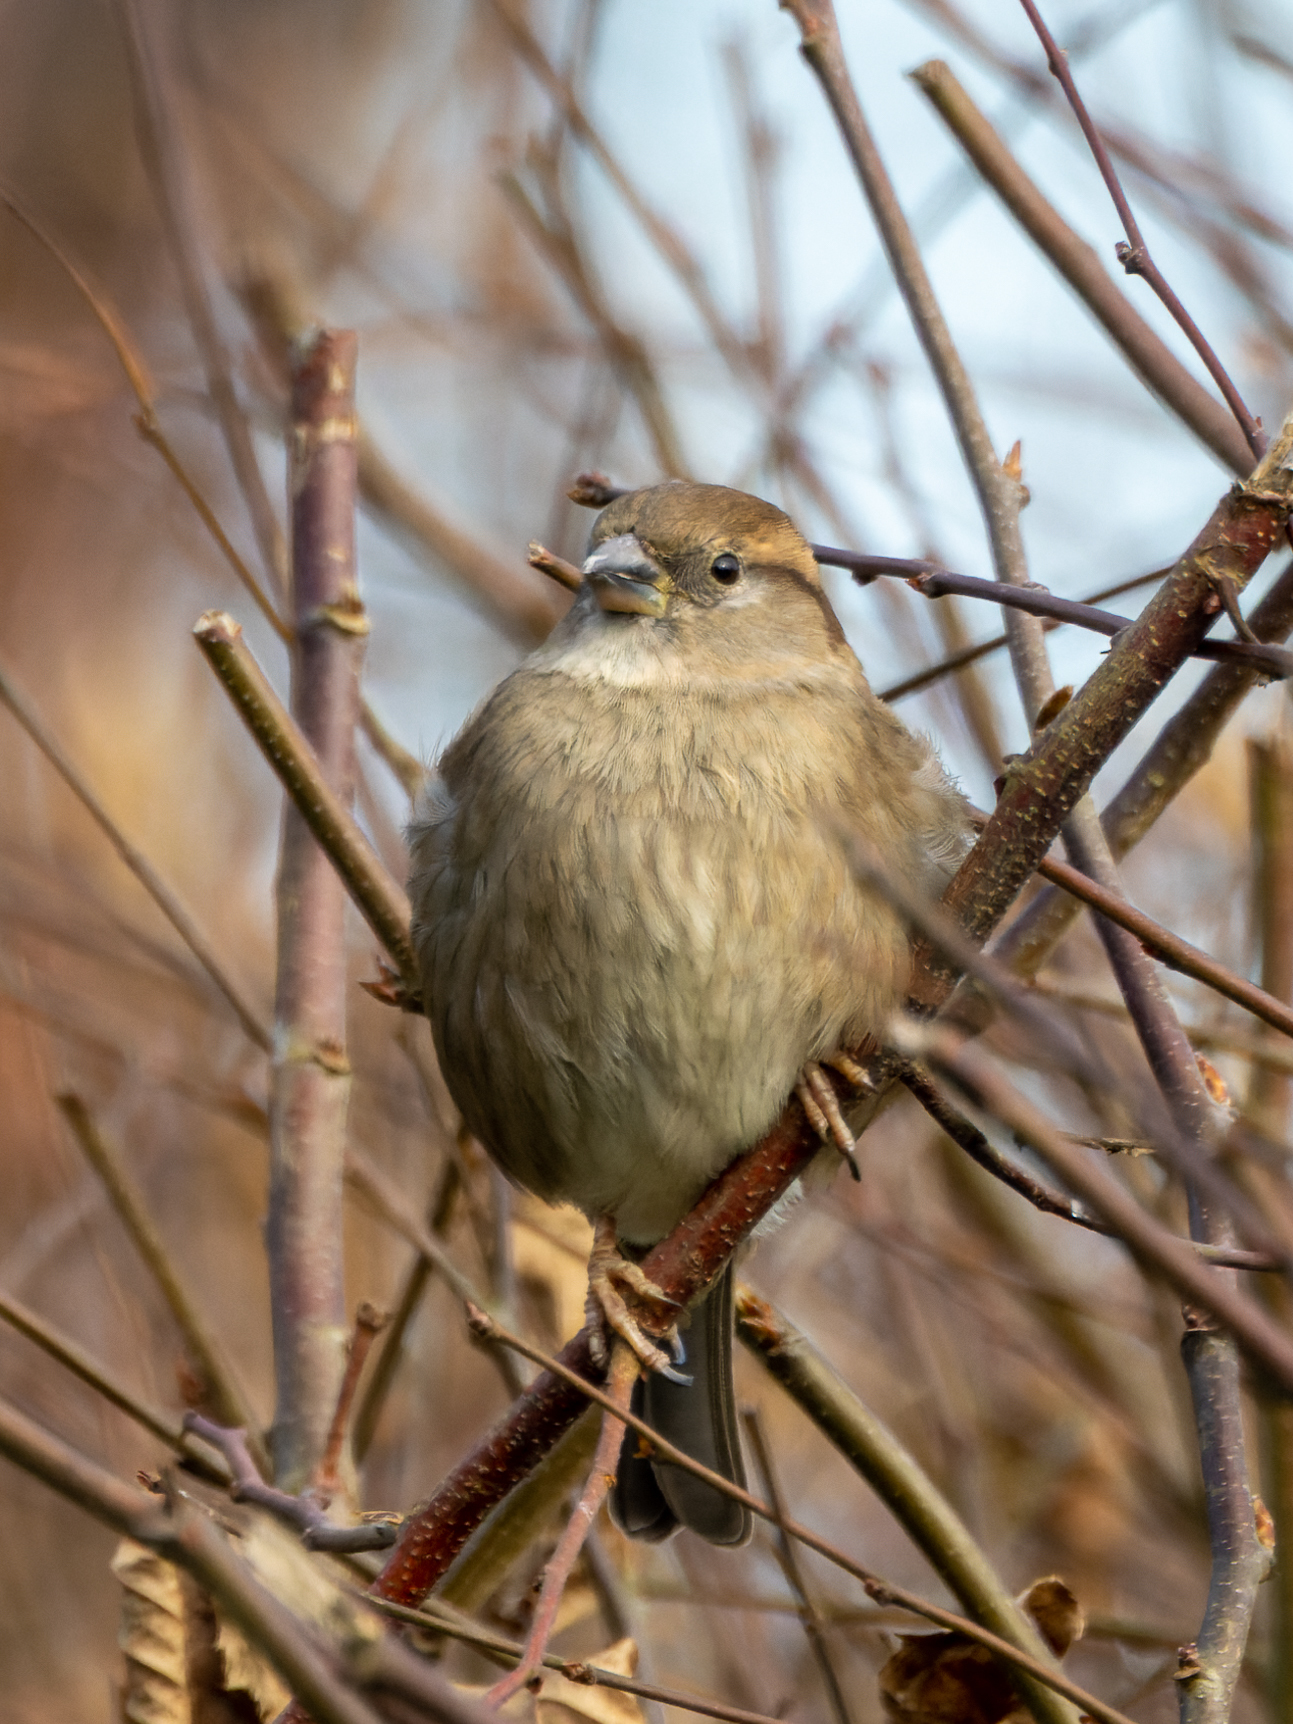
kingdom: Animalia
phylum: Chordata
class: Aves
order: Passeriformes
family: Passeridae
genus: Passer
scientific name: Passer domesticus
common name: House sparrow
